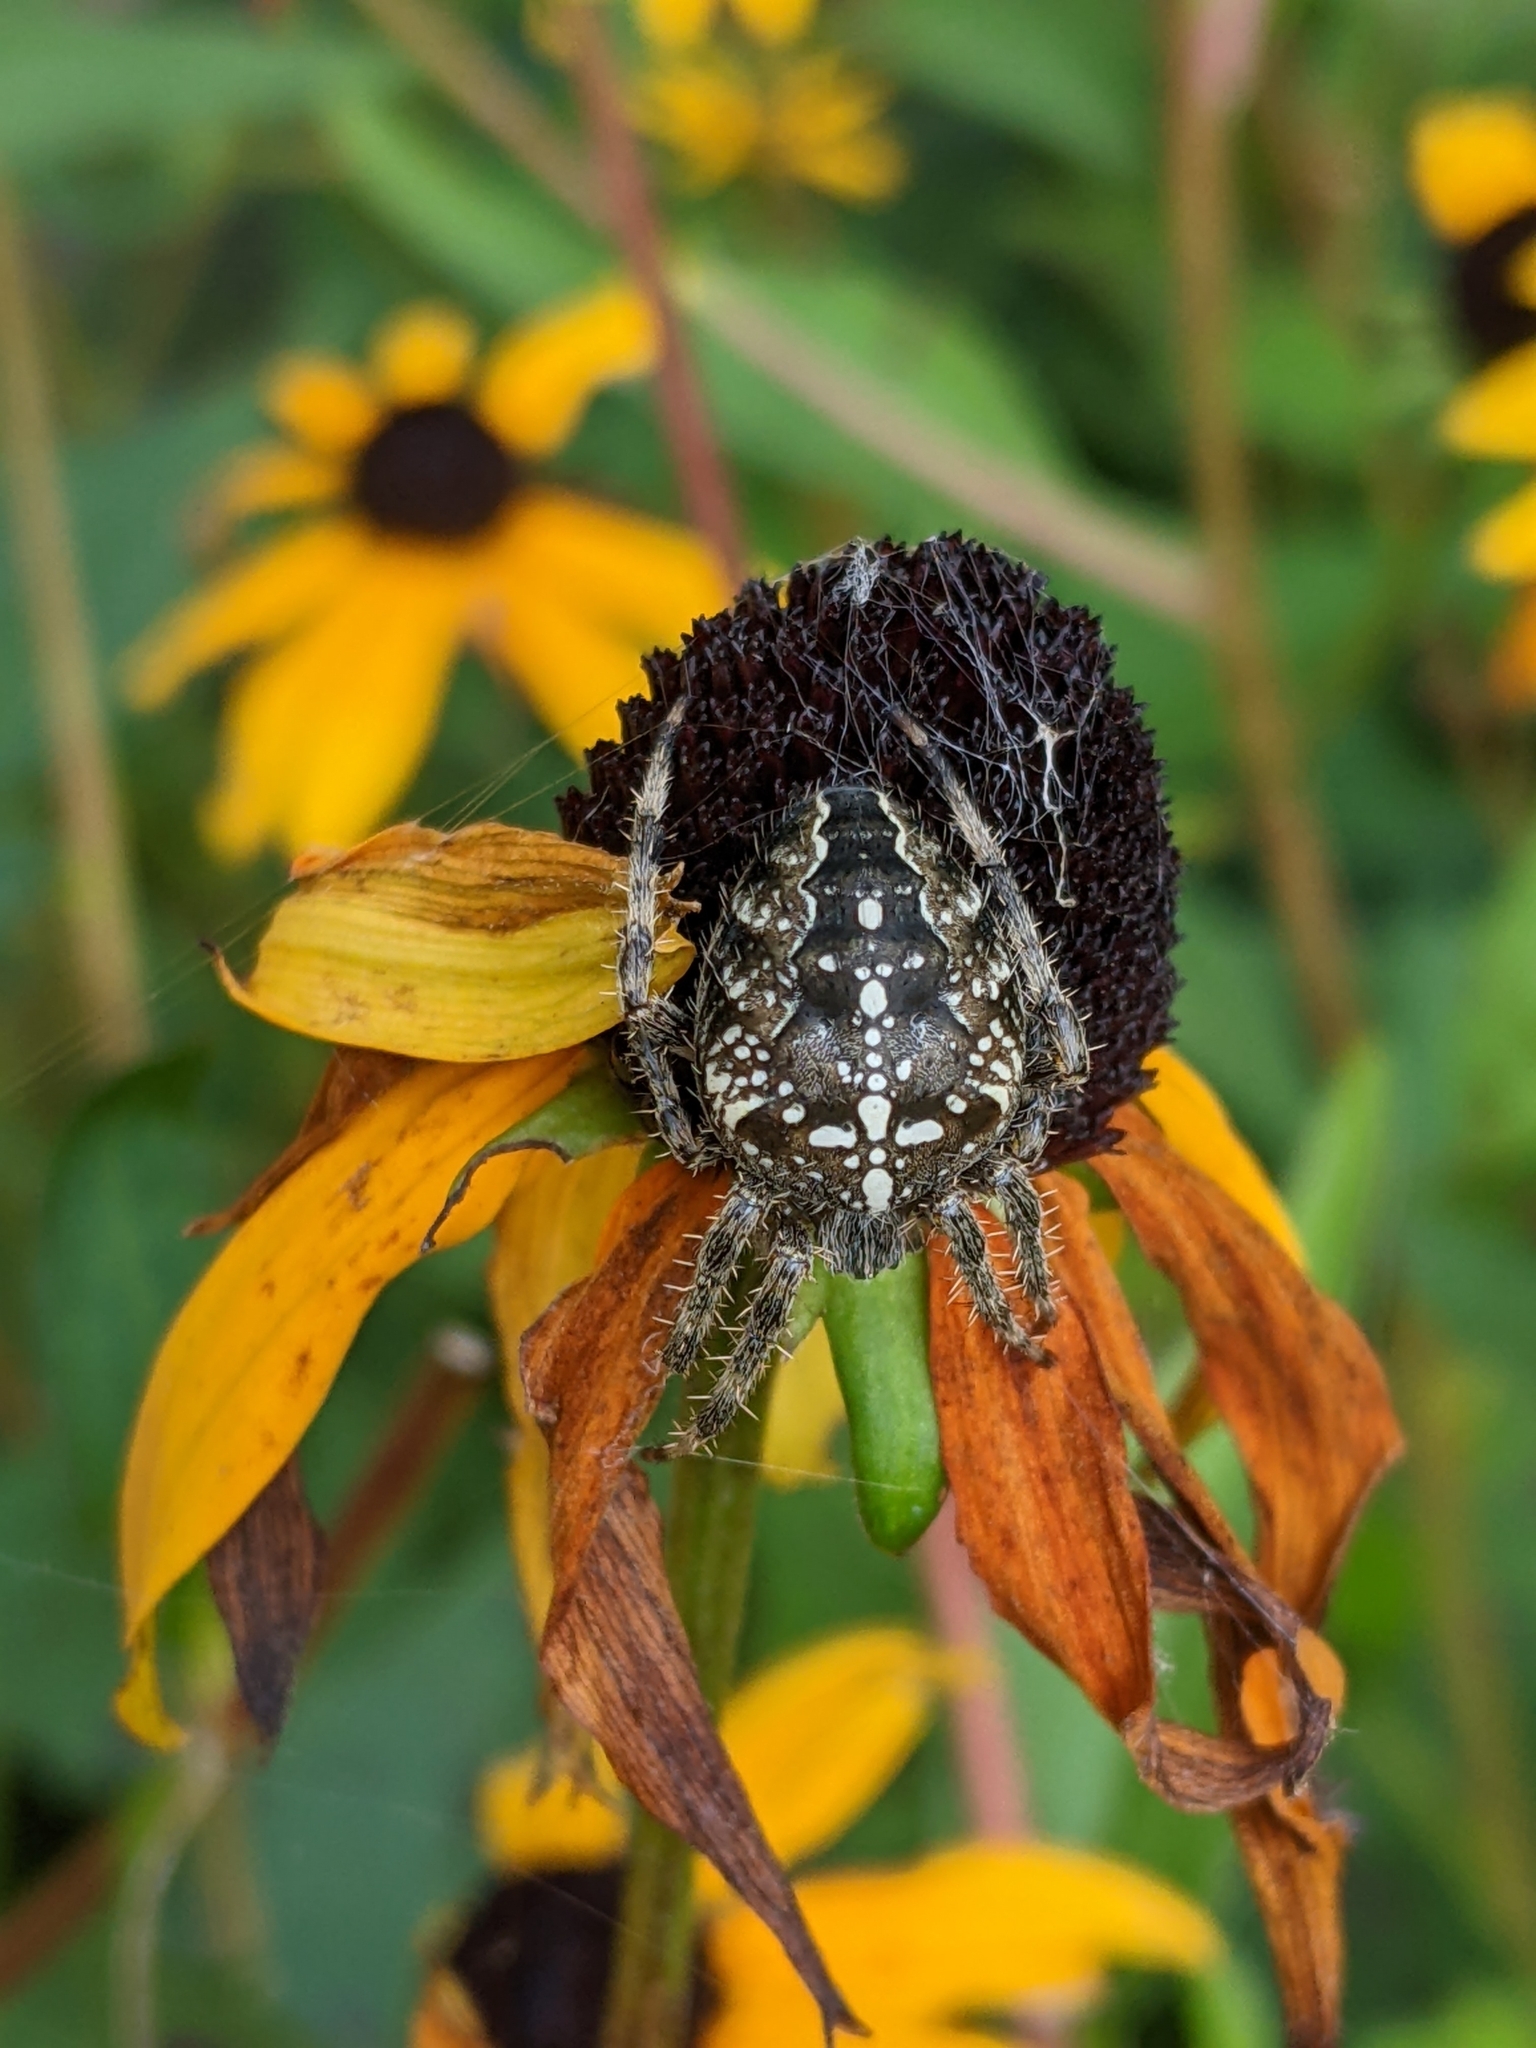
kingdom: Animalia
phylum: Arthropoda
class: Arachnida
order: Araneae
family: Araneidae
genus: Araneus
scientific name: Araneus diadematus
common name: Cross orbweaver
